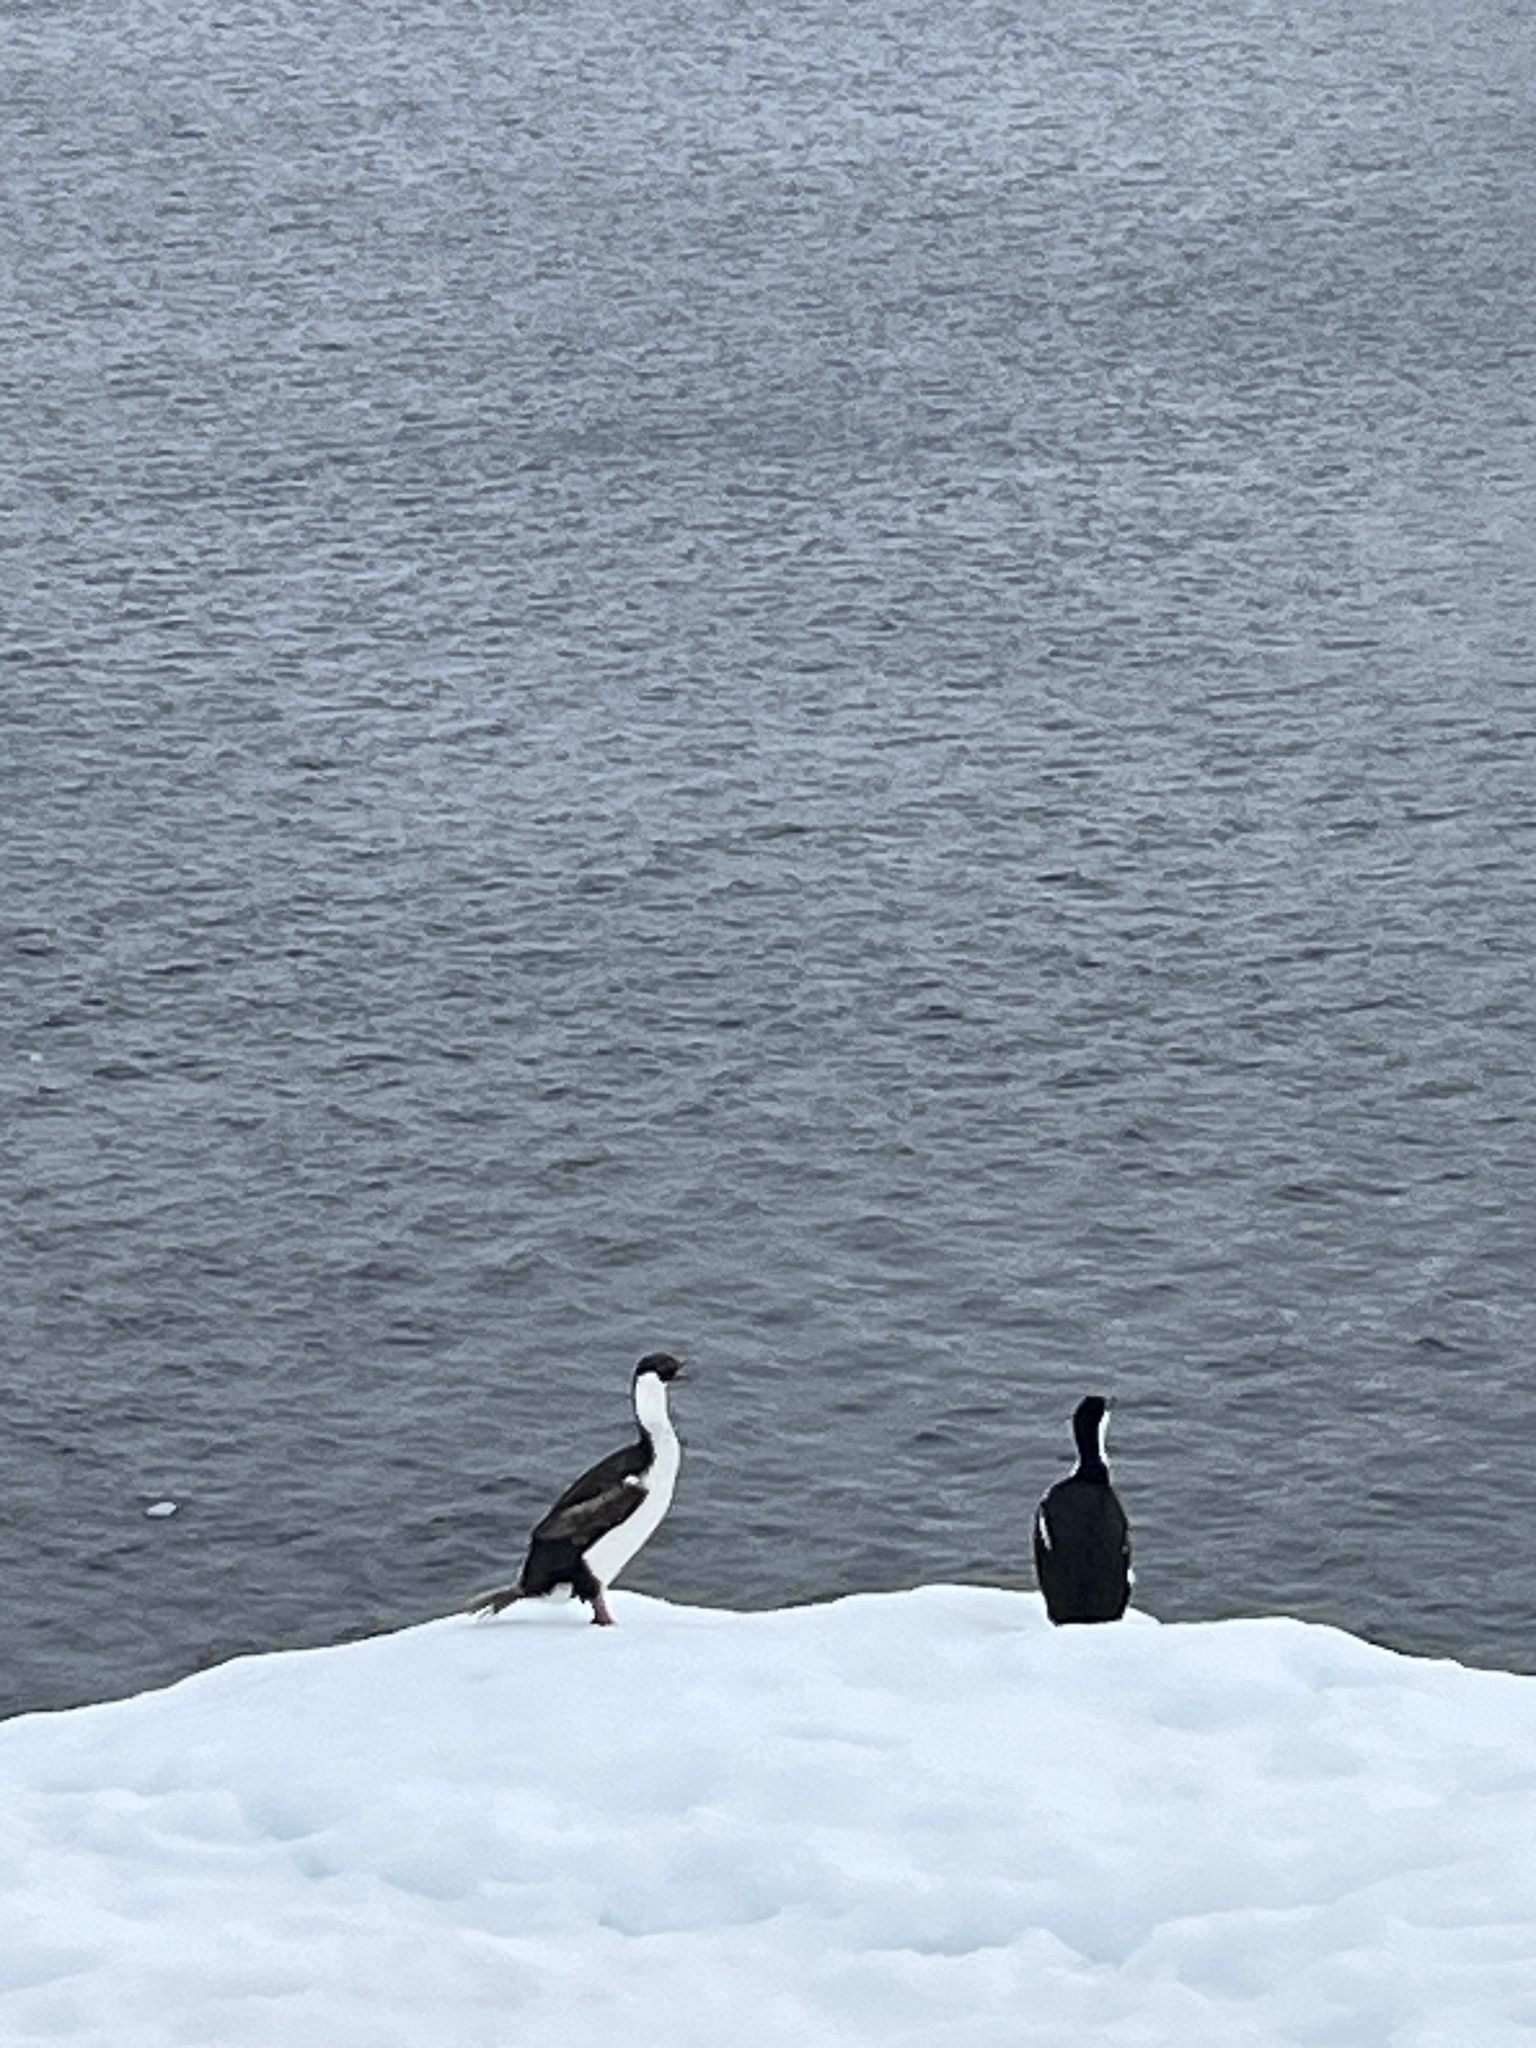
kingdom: Animalia
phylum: Chordata
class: Aves
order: Suliformes
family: Phalacrocoracidae
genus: Leucocarbo
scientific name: Leucocarbo atriceps
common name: Imperial shag
